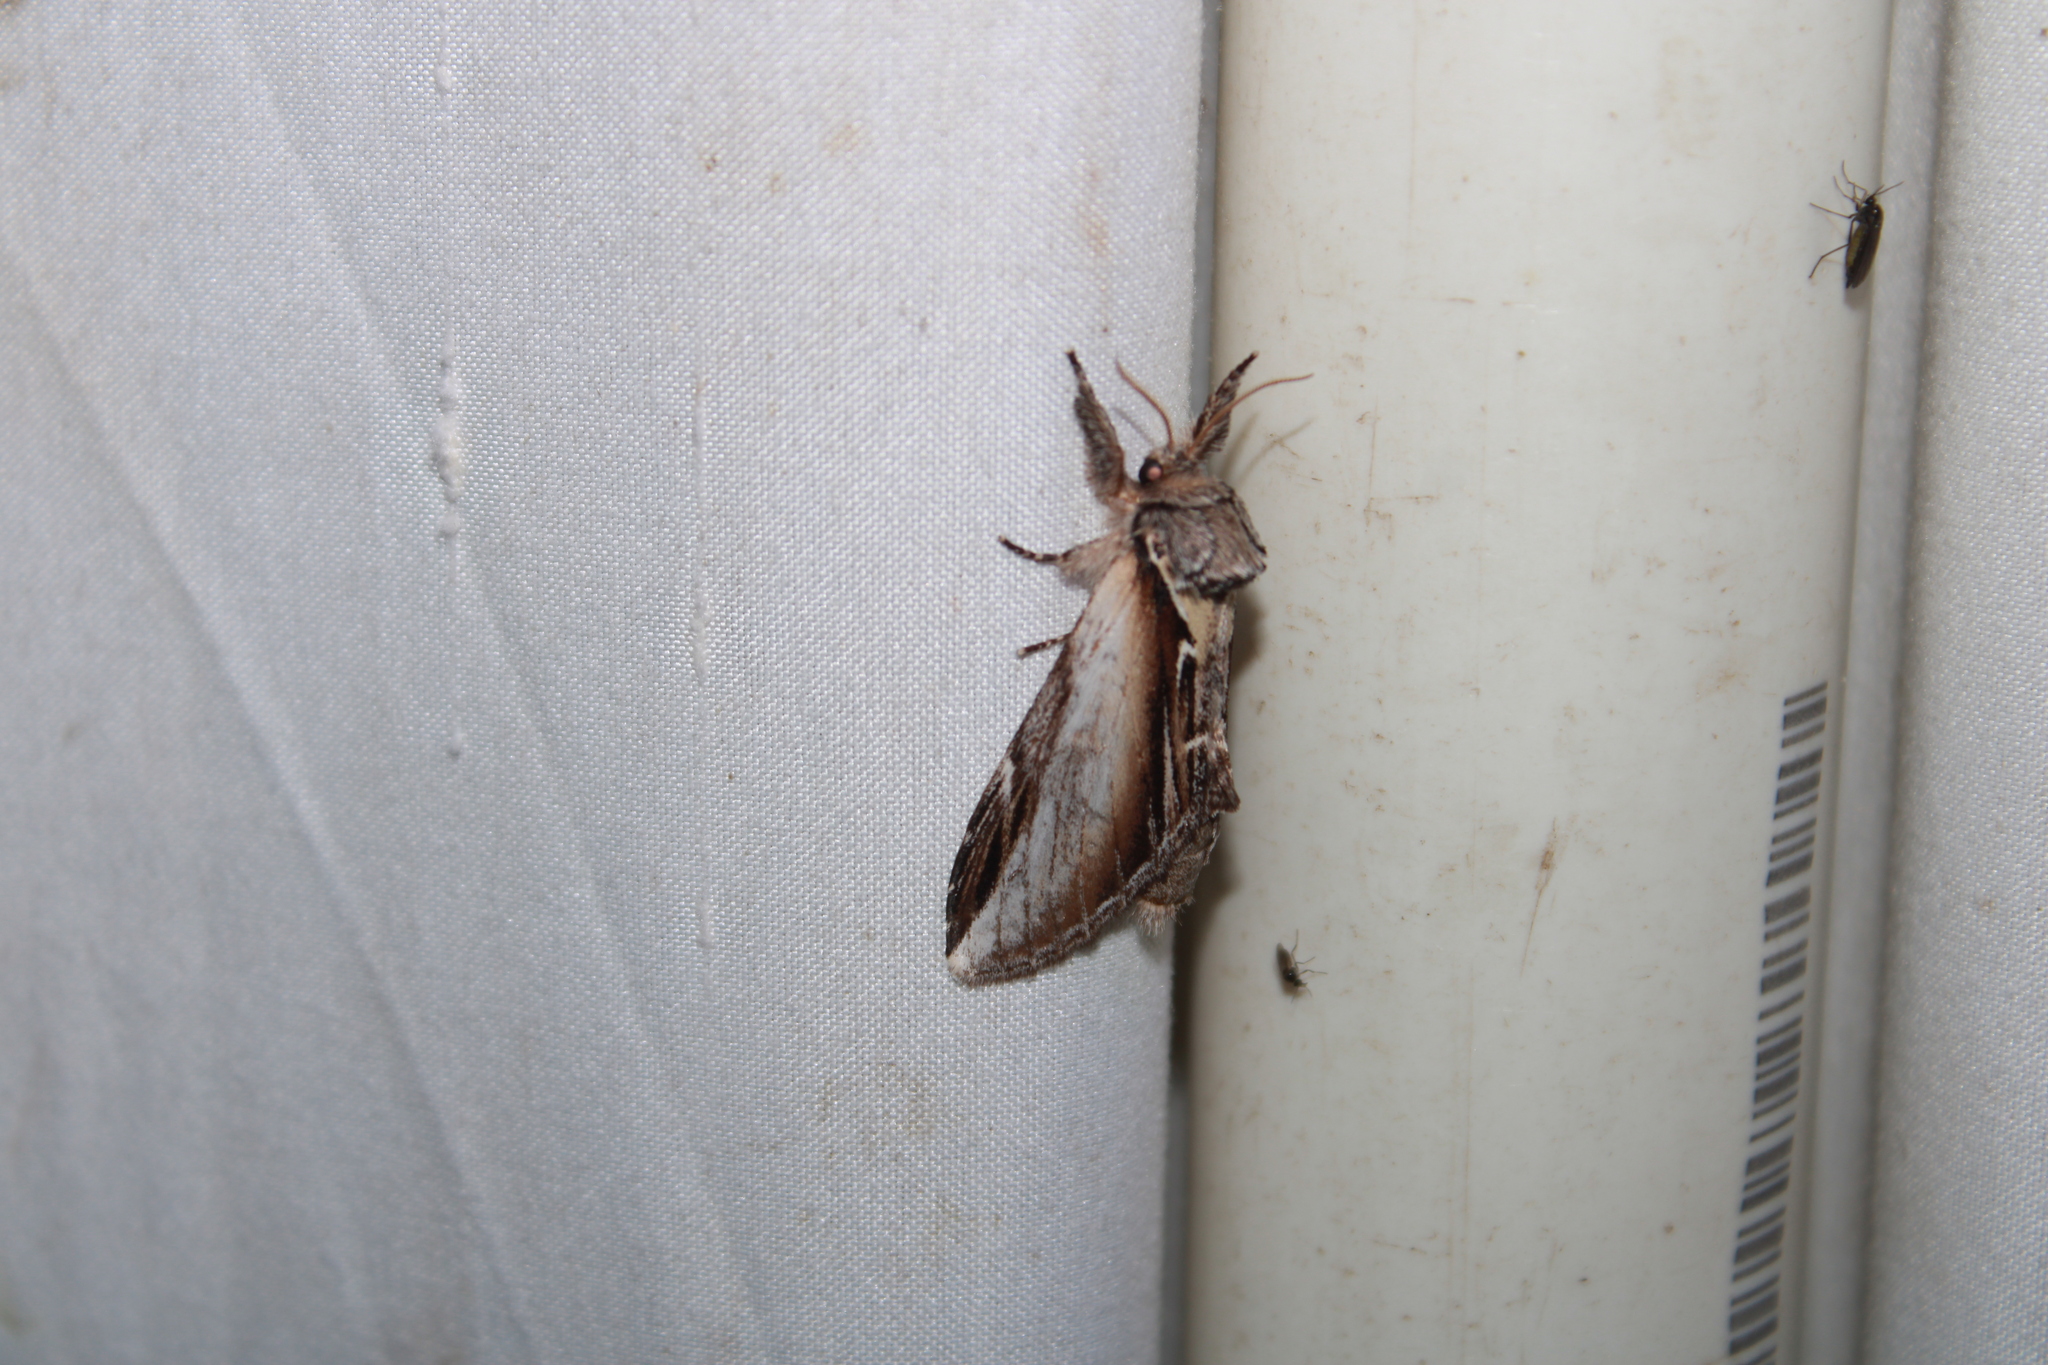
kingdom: Animalia
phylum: Arthropoda
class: Insecta
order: Lepidoptera
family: Notodontidae
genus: Pheosia
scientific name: Pheosia rimosa
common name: Black-rimmed prominent
